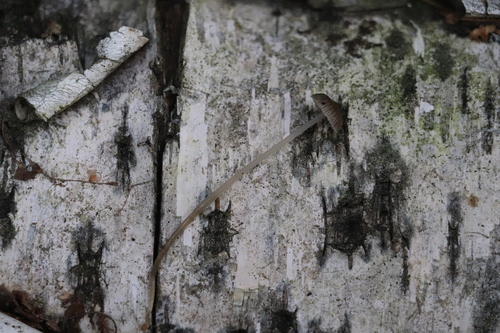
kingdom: Fungi
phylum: Basidiomycota
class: Agaricomycetes
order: Agaricales
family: Mycenaceae
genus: Mycena
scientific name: Mycena vulgaris
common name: Vulgar bonnet
